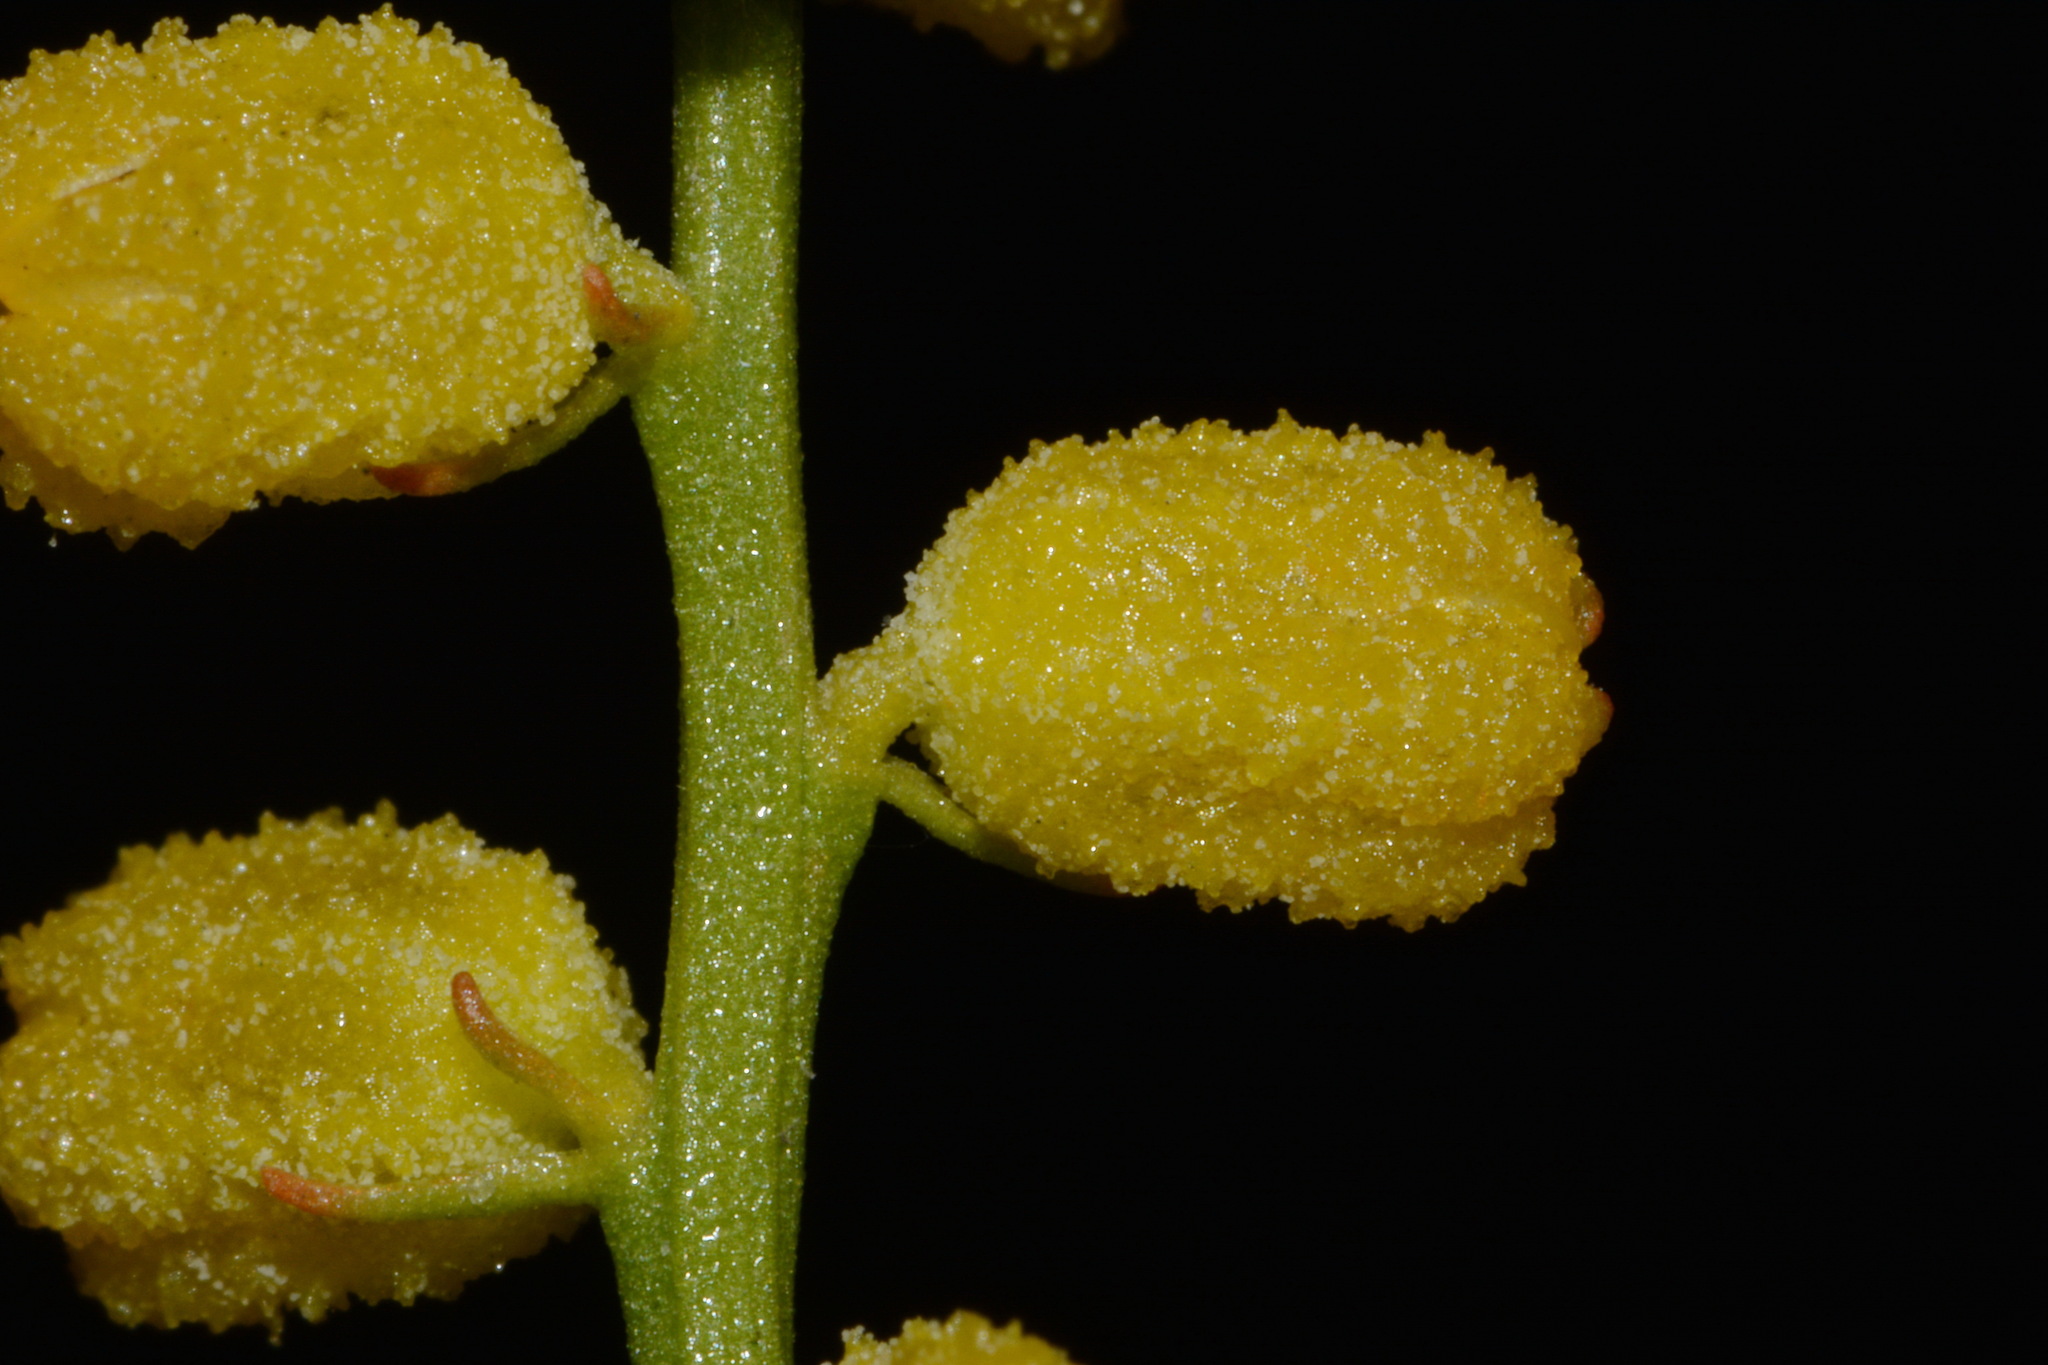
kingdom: Plantae
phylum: Tracheophyta
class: Liliopsida
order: Dioscoreales
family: Nartheciaceae
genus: Aletris
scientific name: Aletris aurea
